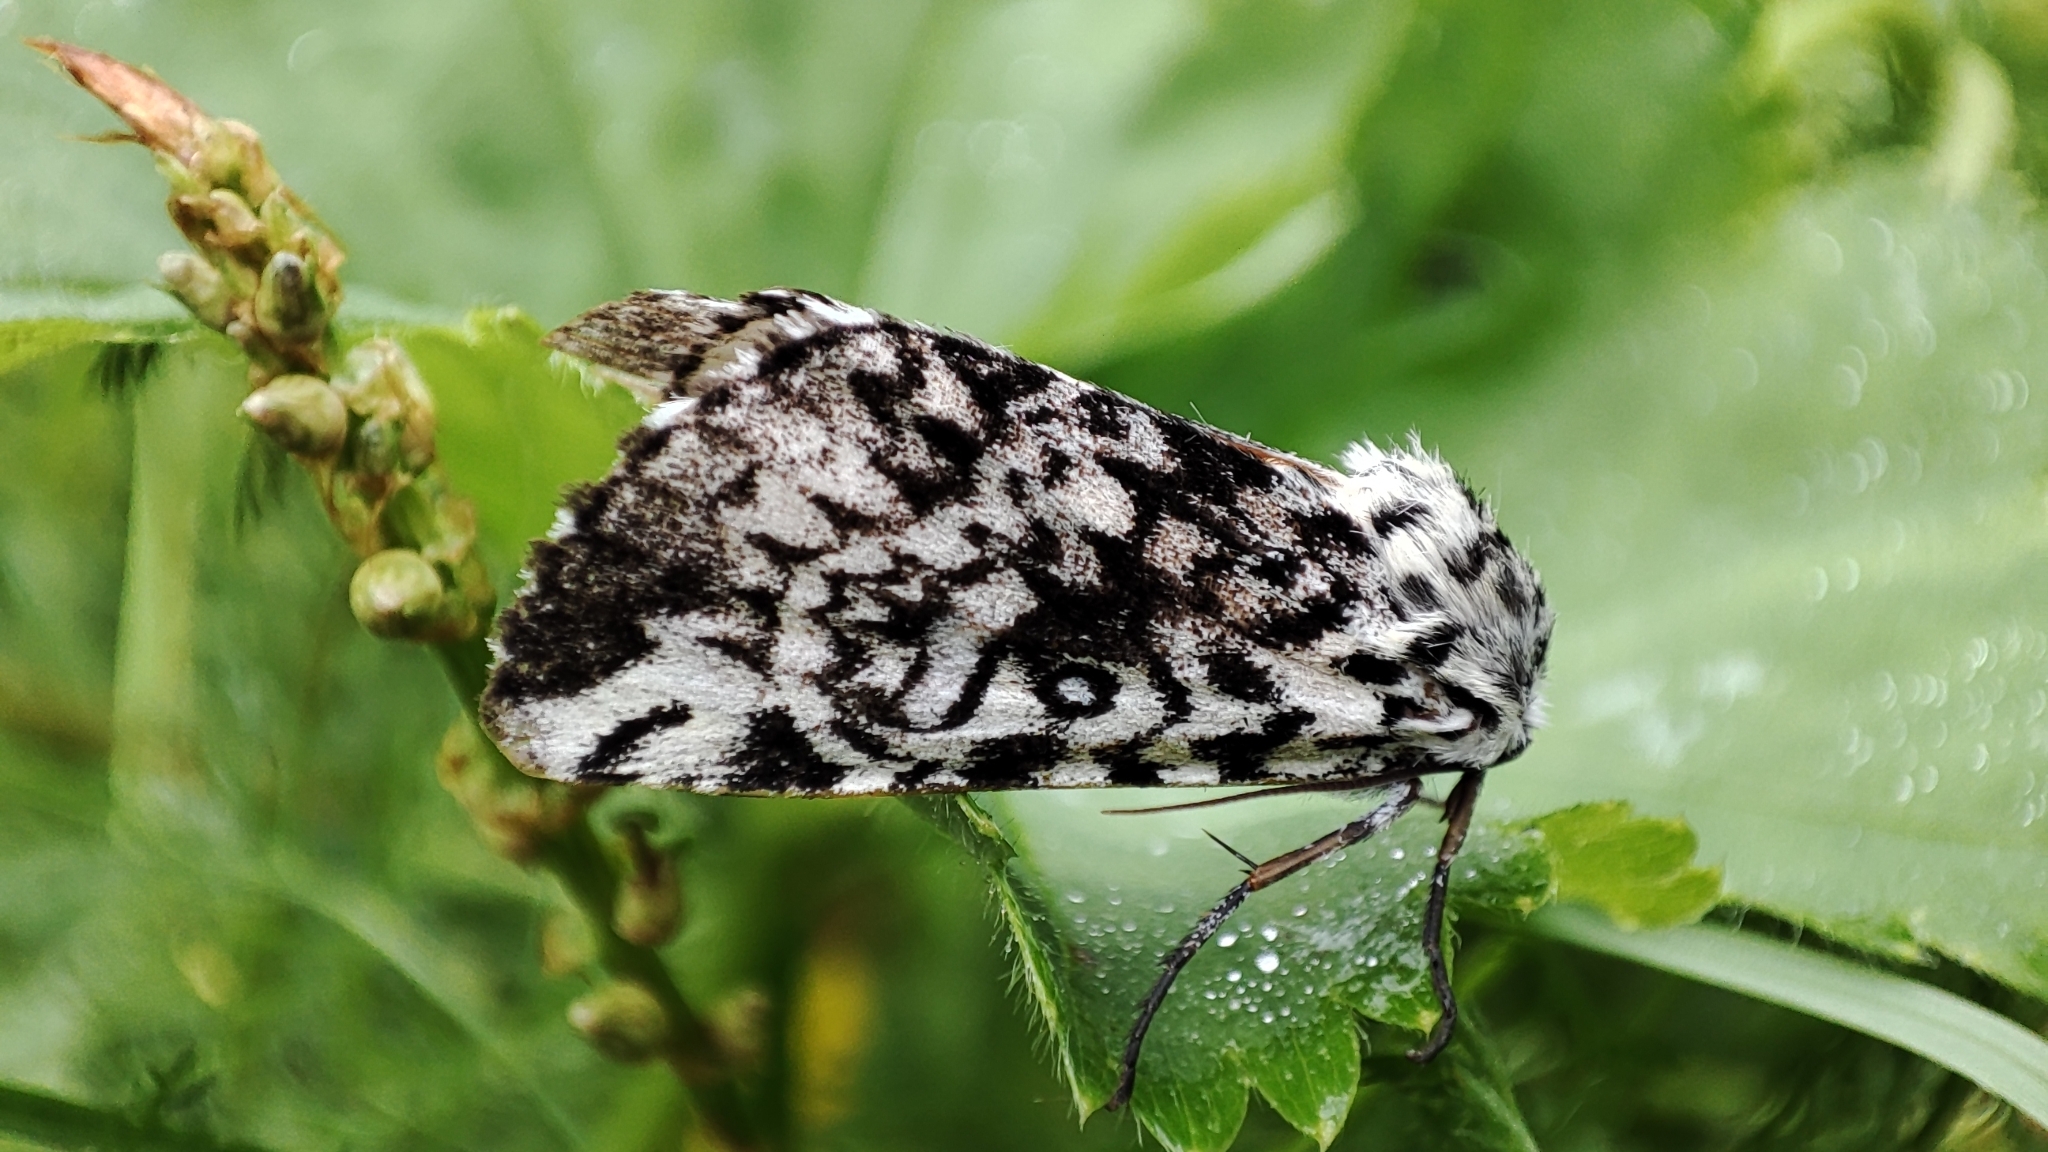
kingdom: Animalia
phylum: Arthropoda
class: Insecta
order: Lepidoptera
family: Noctuidae
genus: Trichosea
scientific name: Trichosea ludifica
